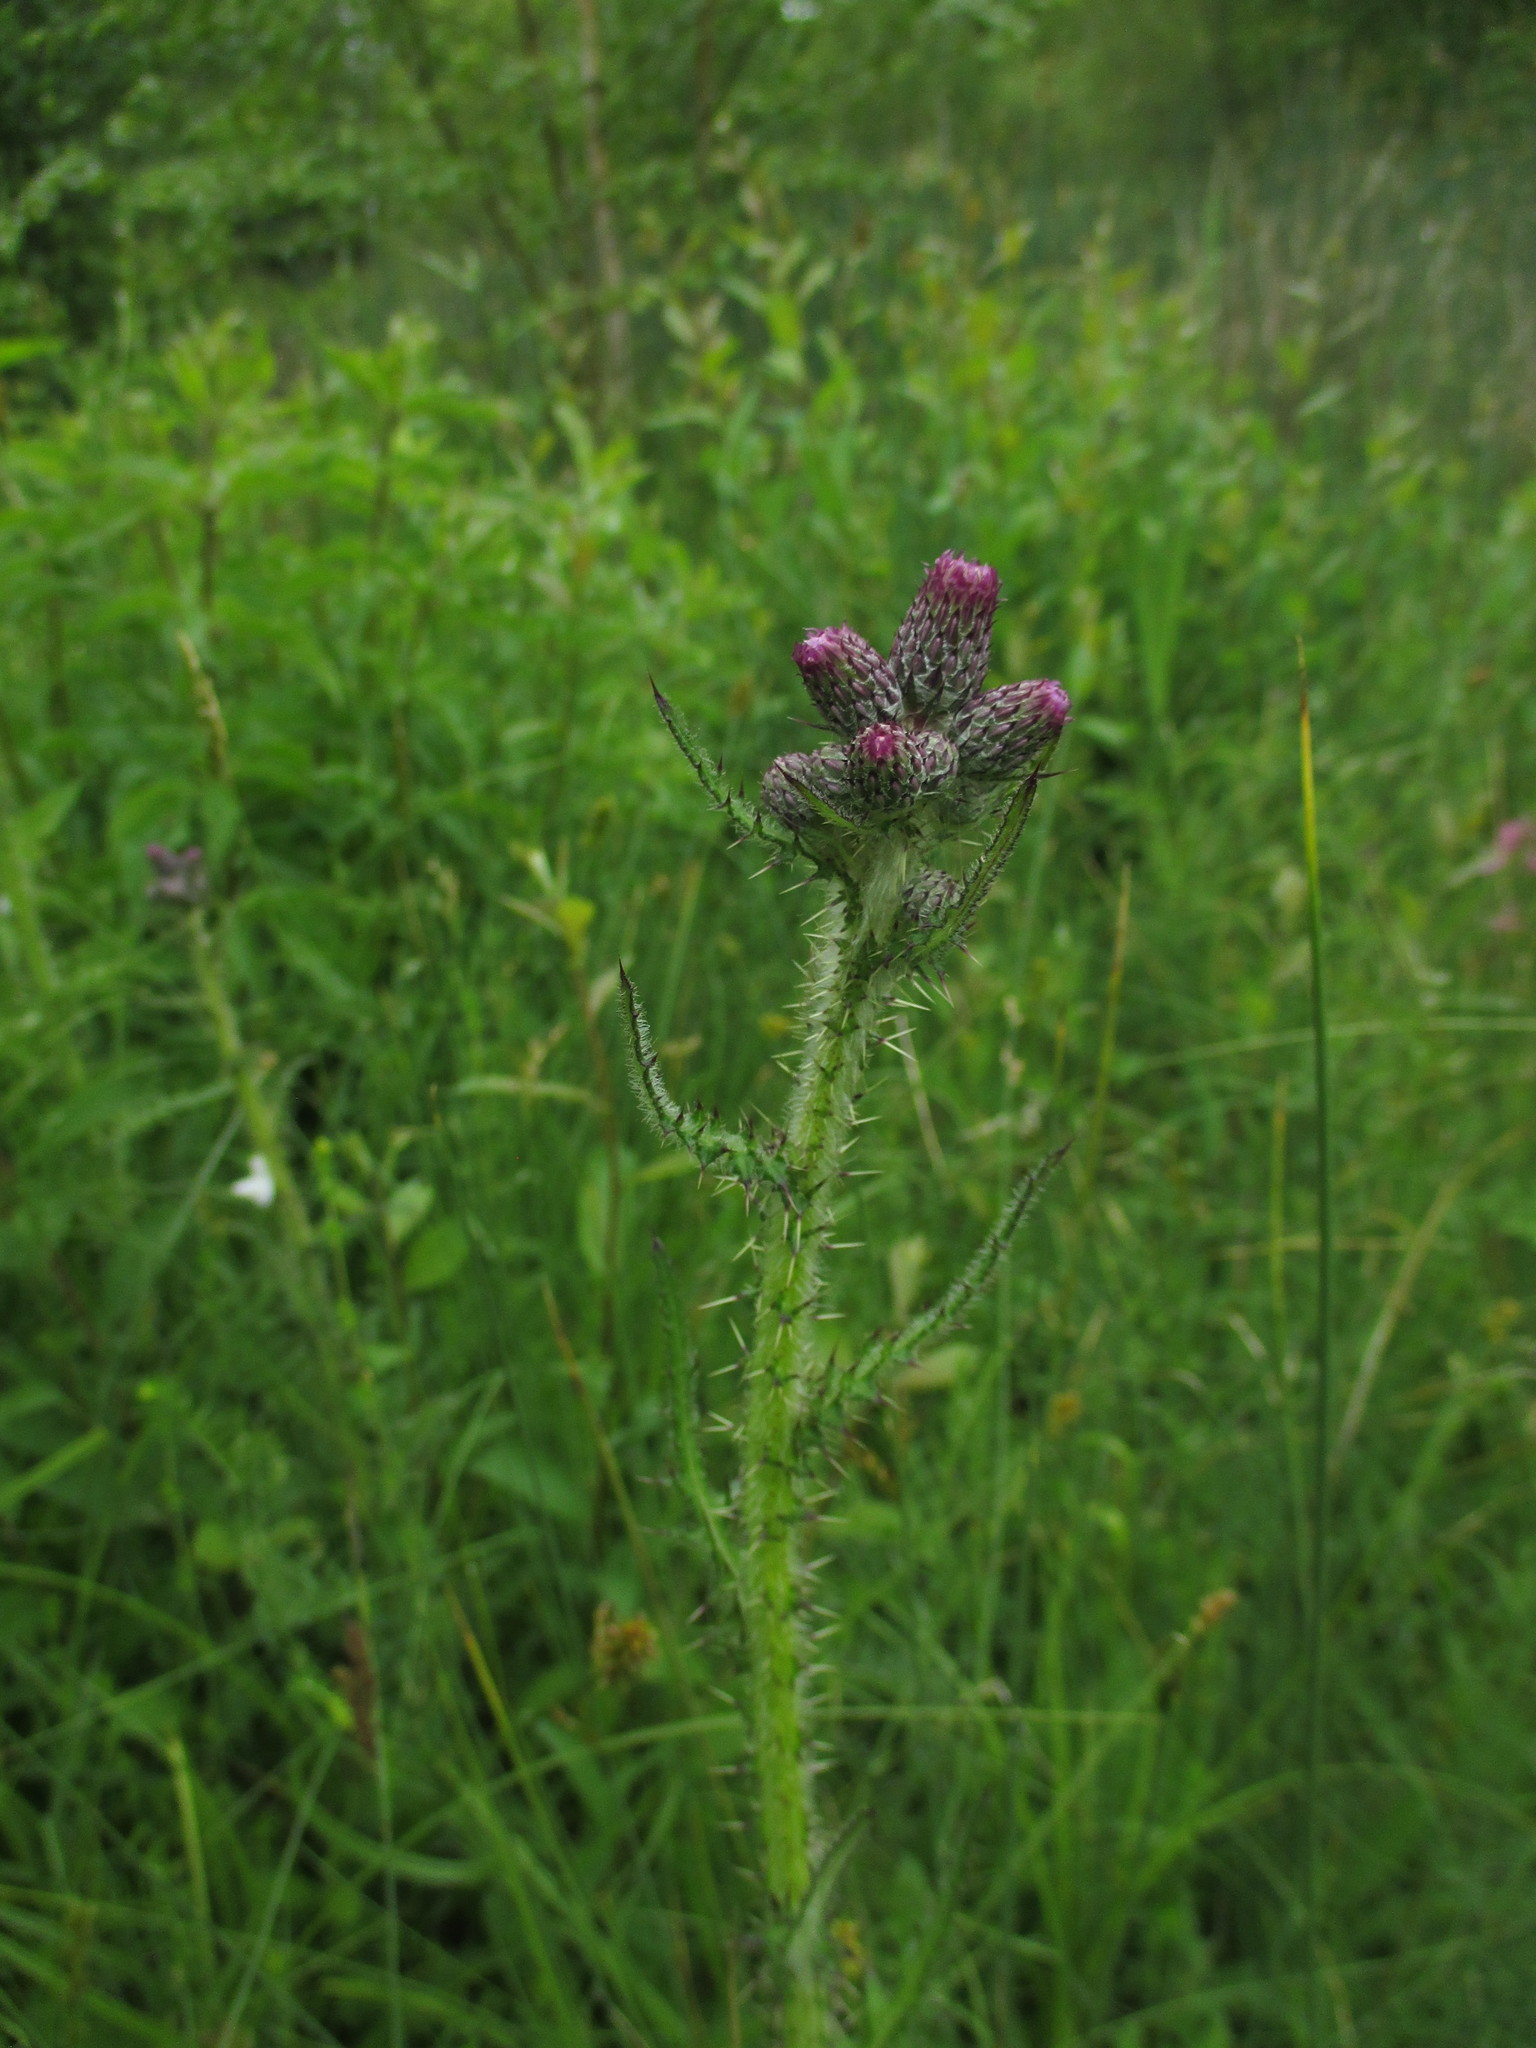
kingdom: Plantae
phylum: Tracheophyta
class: Magnoliopsida
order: Asterales
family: Asteraceae
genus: Cirsium
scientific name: Cirsium palustre
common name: Marsh thistle
